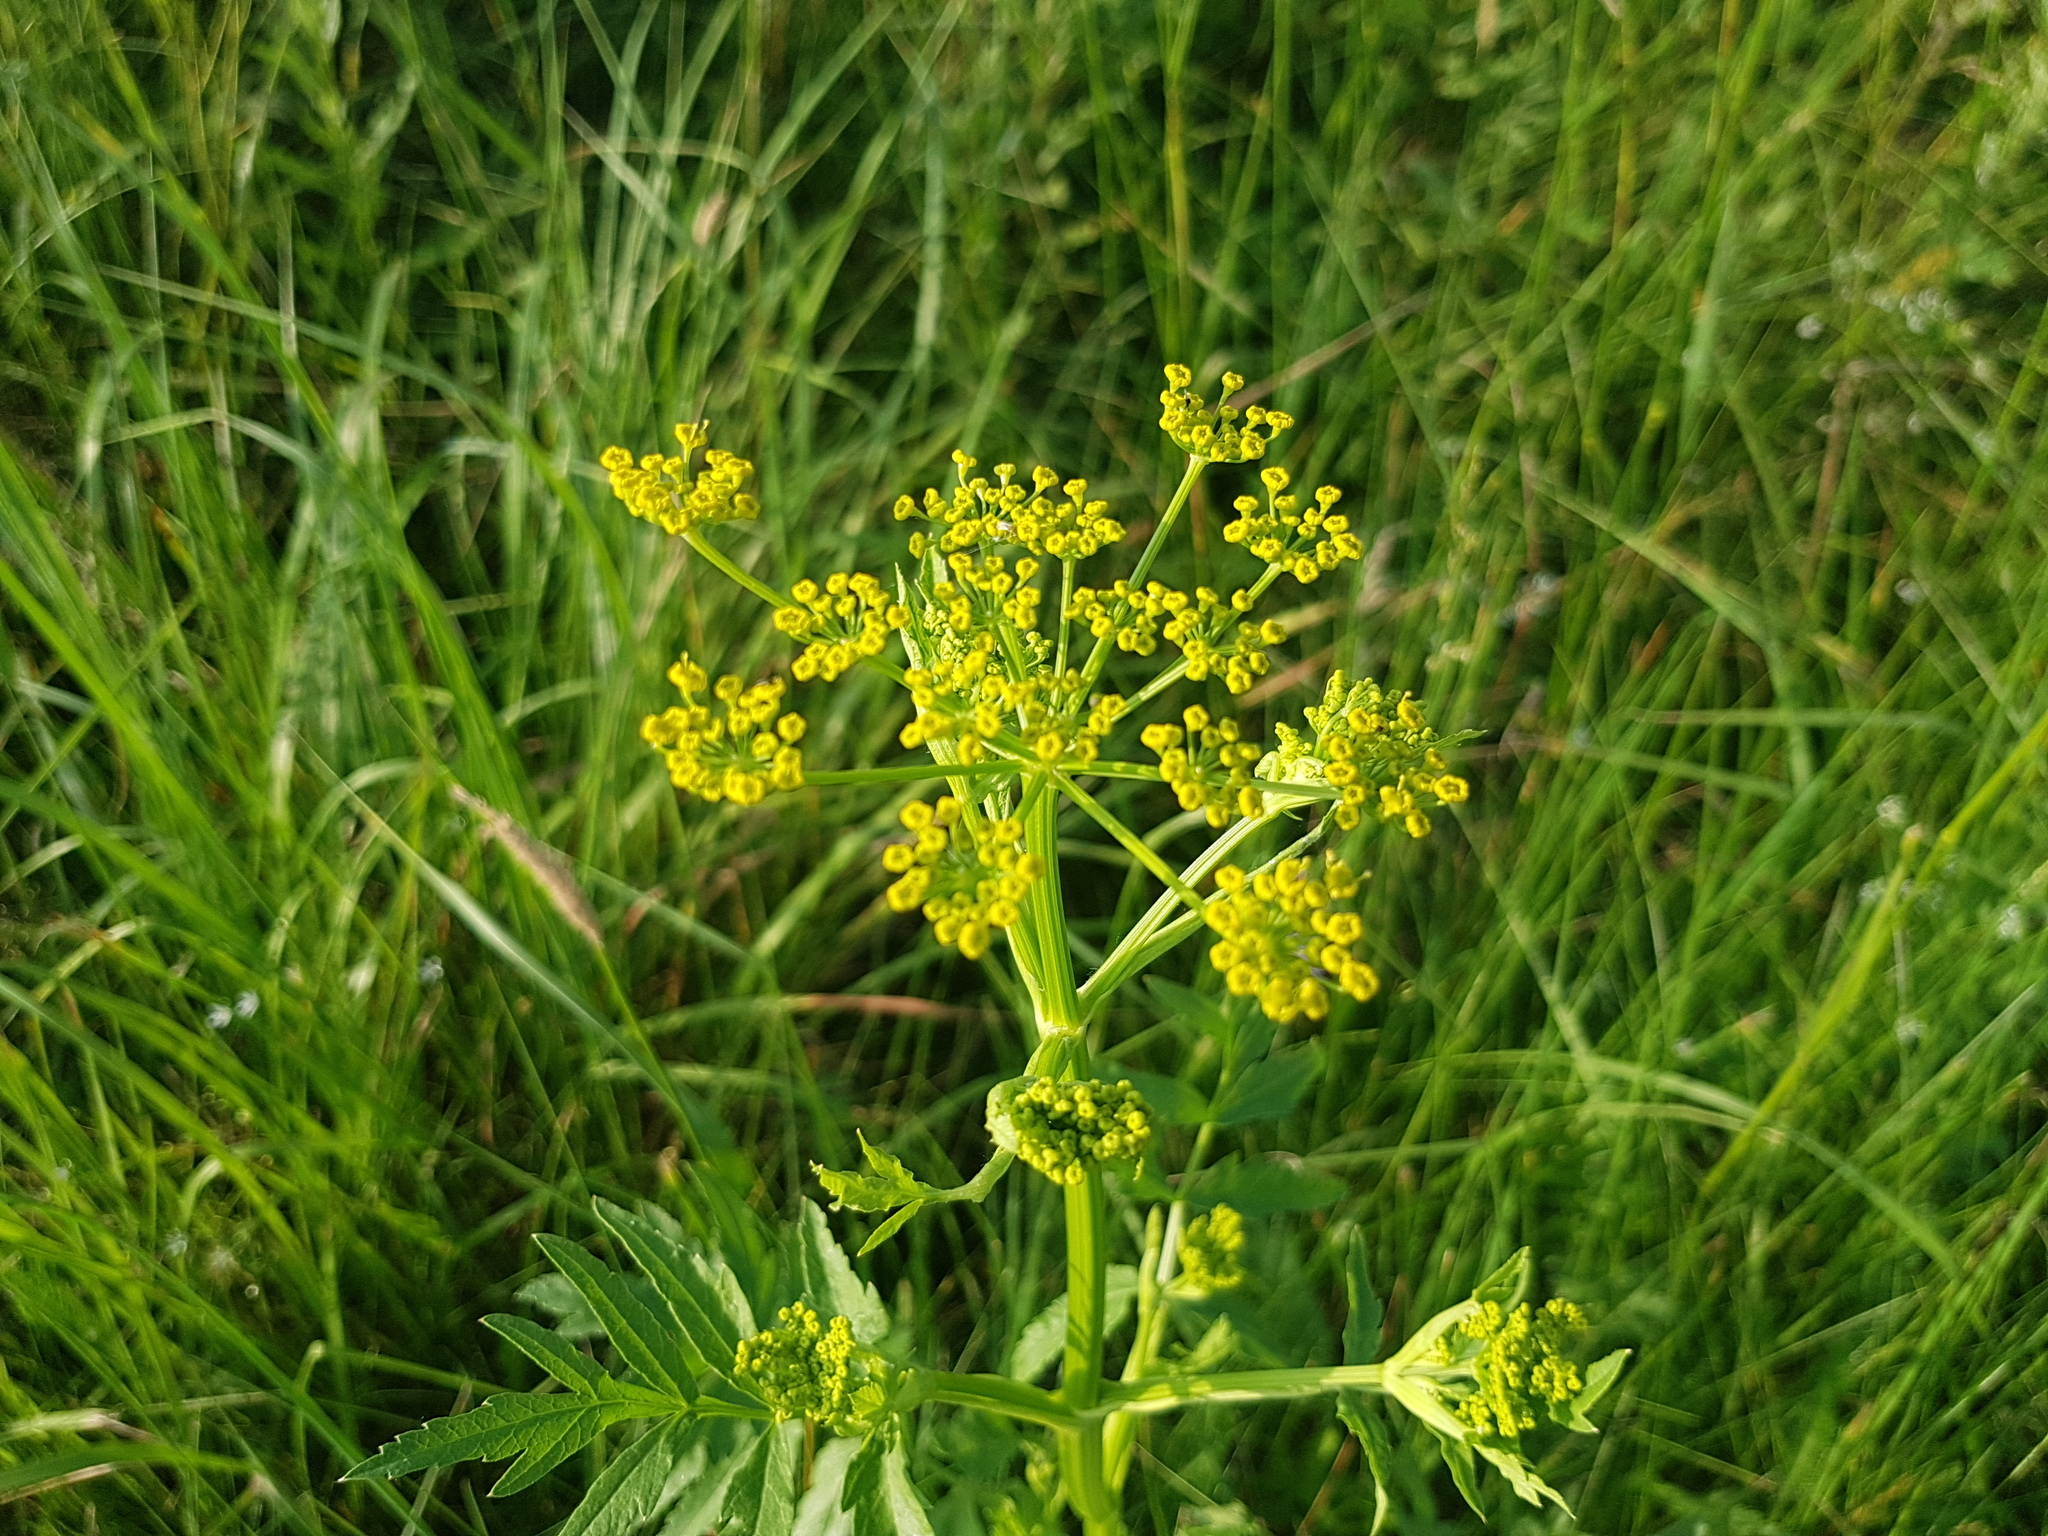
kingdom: Plantae
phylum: Tracheophyta
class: Magnoliopsida
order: Apiales
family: Apiaceae
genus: Pastinaca
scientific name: Pastinaca sativa
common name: Wild parsnip
